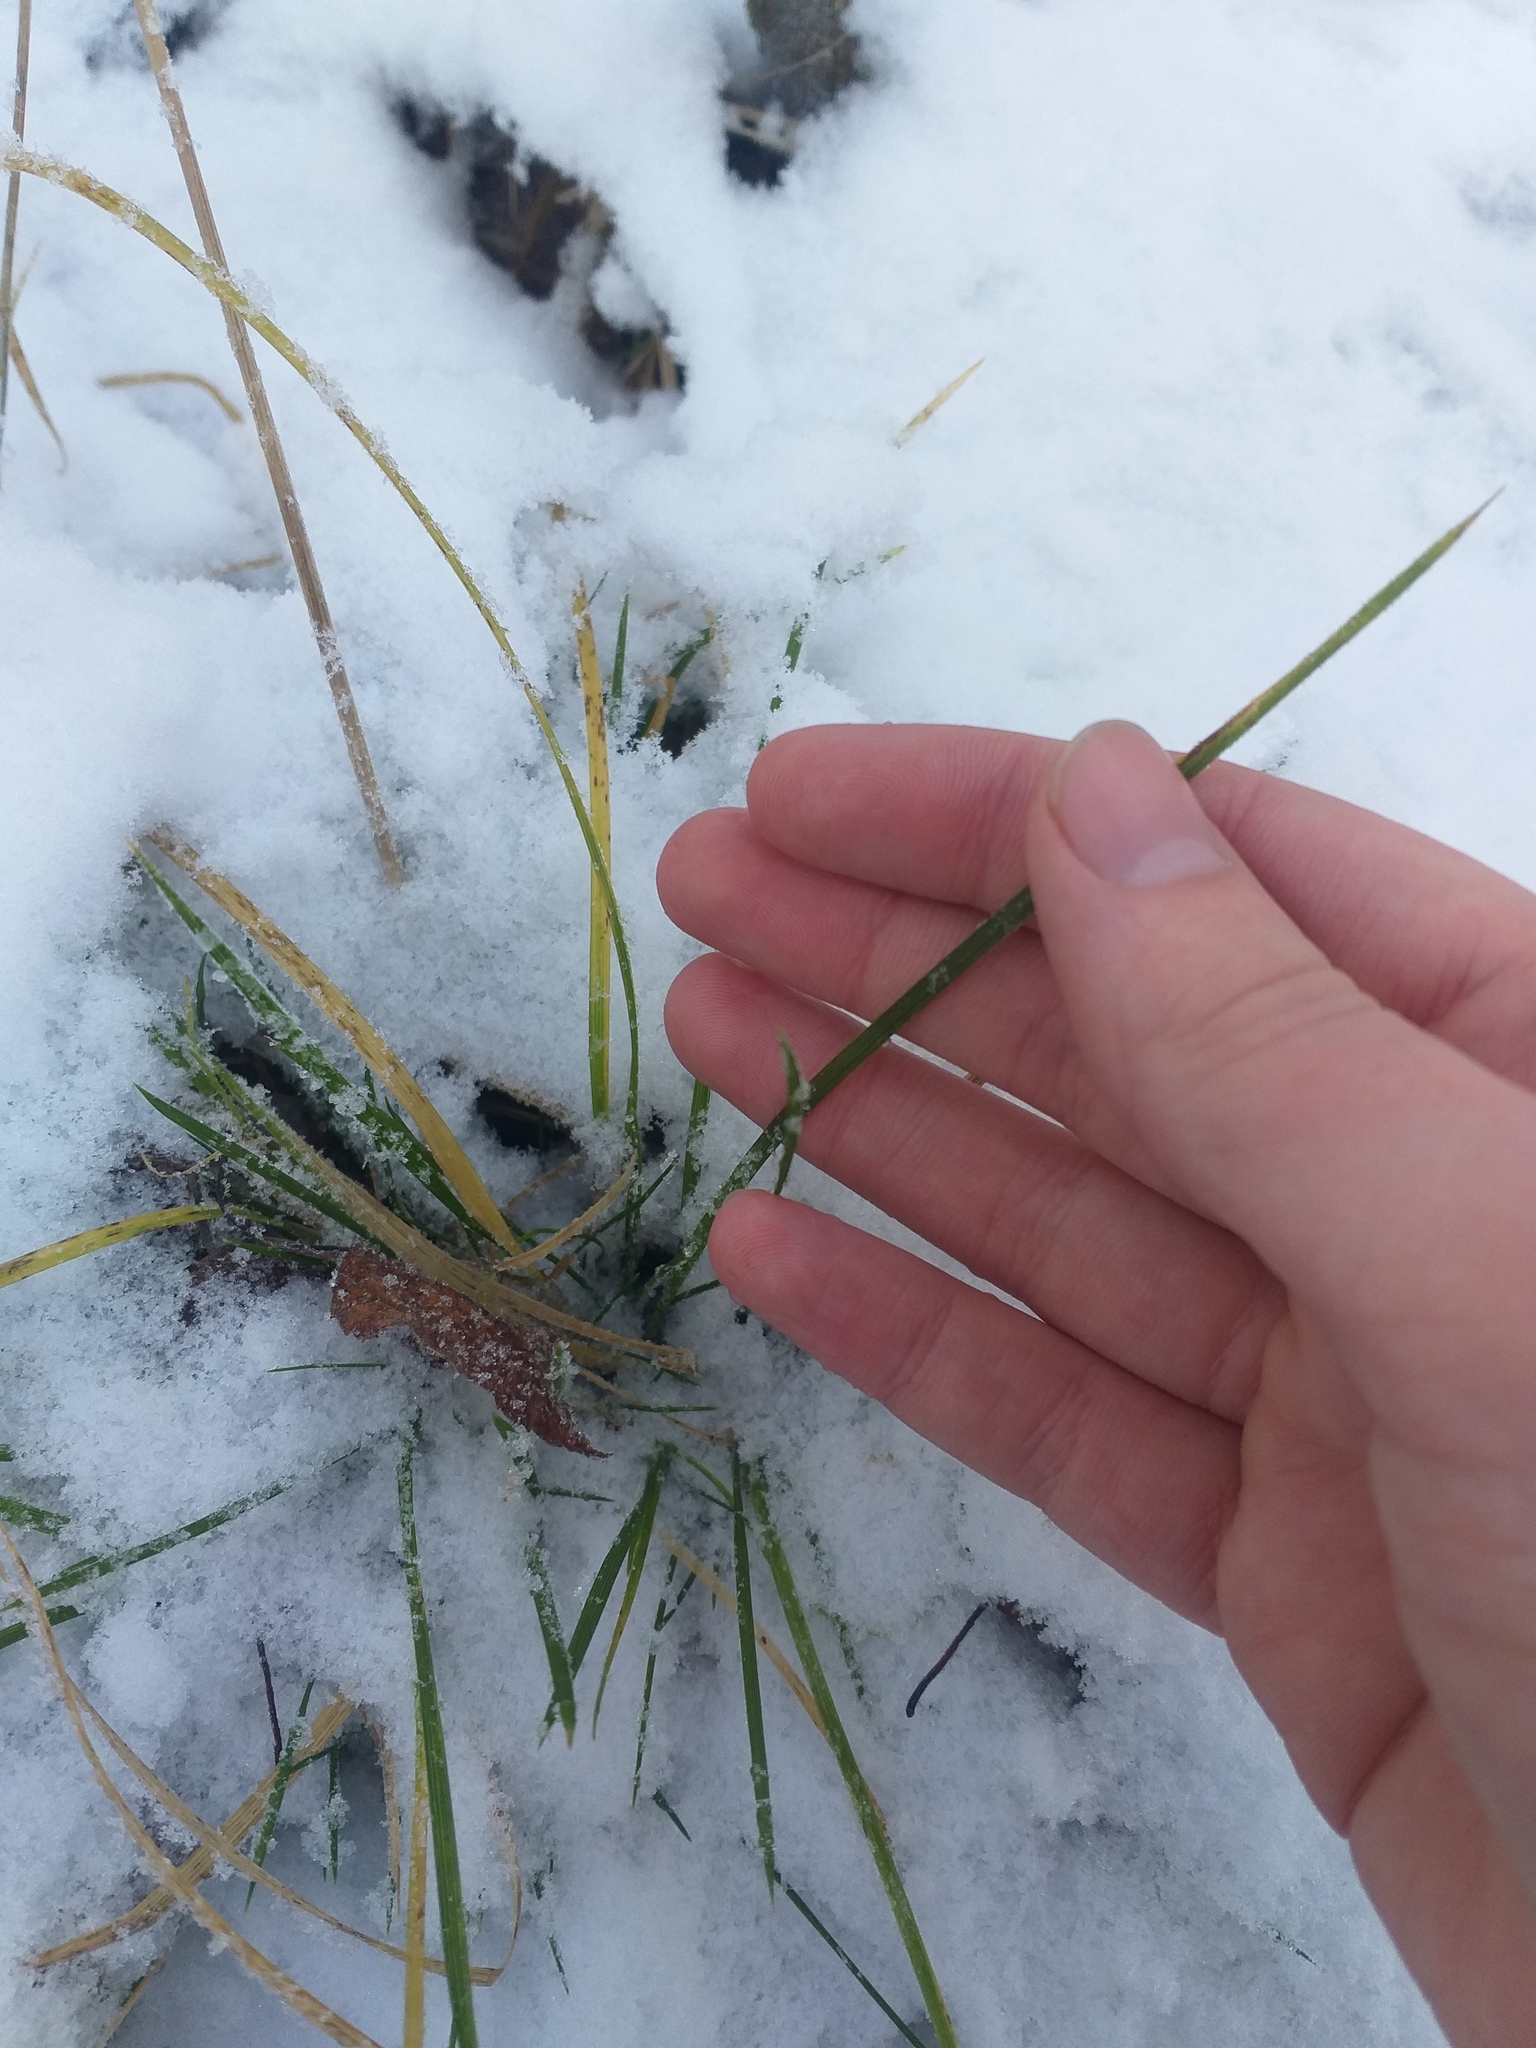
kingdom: Plantae
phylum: Tracheophyta
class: Liliopsida
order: Poales
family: Poaceae
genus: Deschampsia
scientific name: Deschampsia cespitosa
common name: Tufted hair-grass
